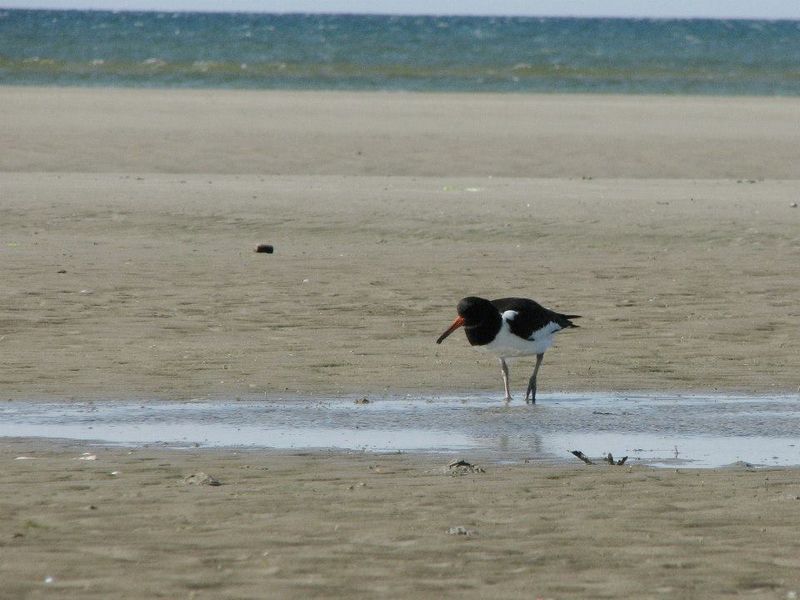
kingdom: Animalia
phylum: Chordata
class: Aves
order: Charadriiformes
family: Haematopodidae
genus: Haematopus
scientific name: Haematopus ostralegus
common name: Eurasian oystercatcher
